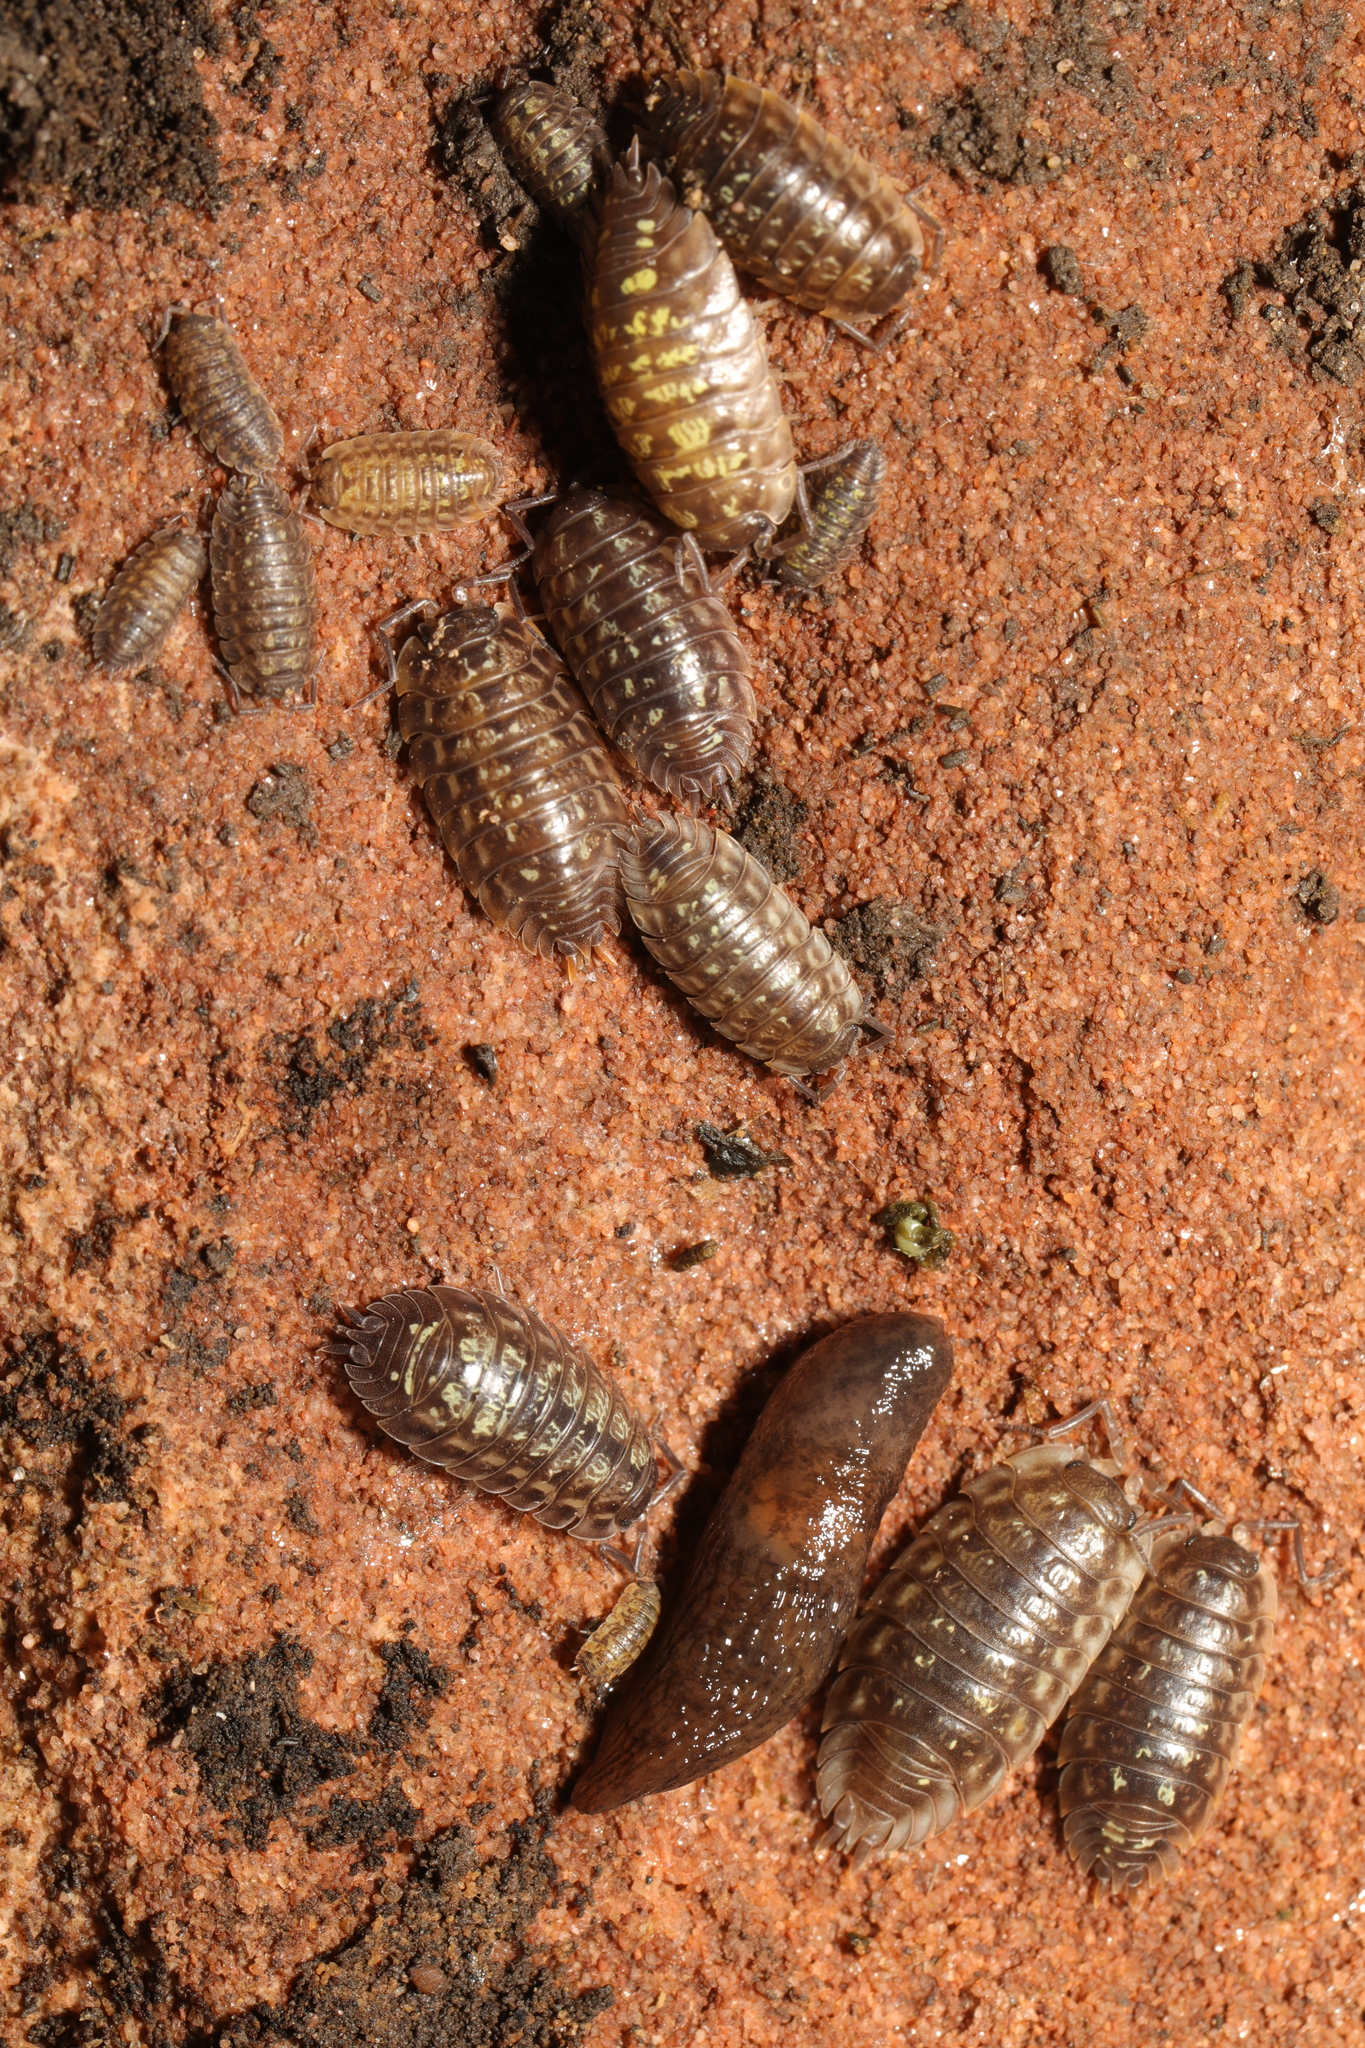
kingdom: Animalia
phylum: Arthropoda
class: Malacostraca
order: Isopoda
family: Oniscidae
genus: Oniscus
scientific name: Oniscus asellus
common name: Common shiny woodlouse
